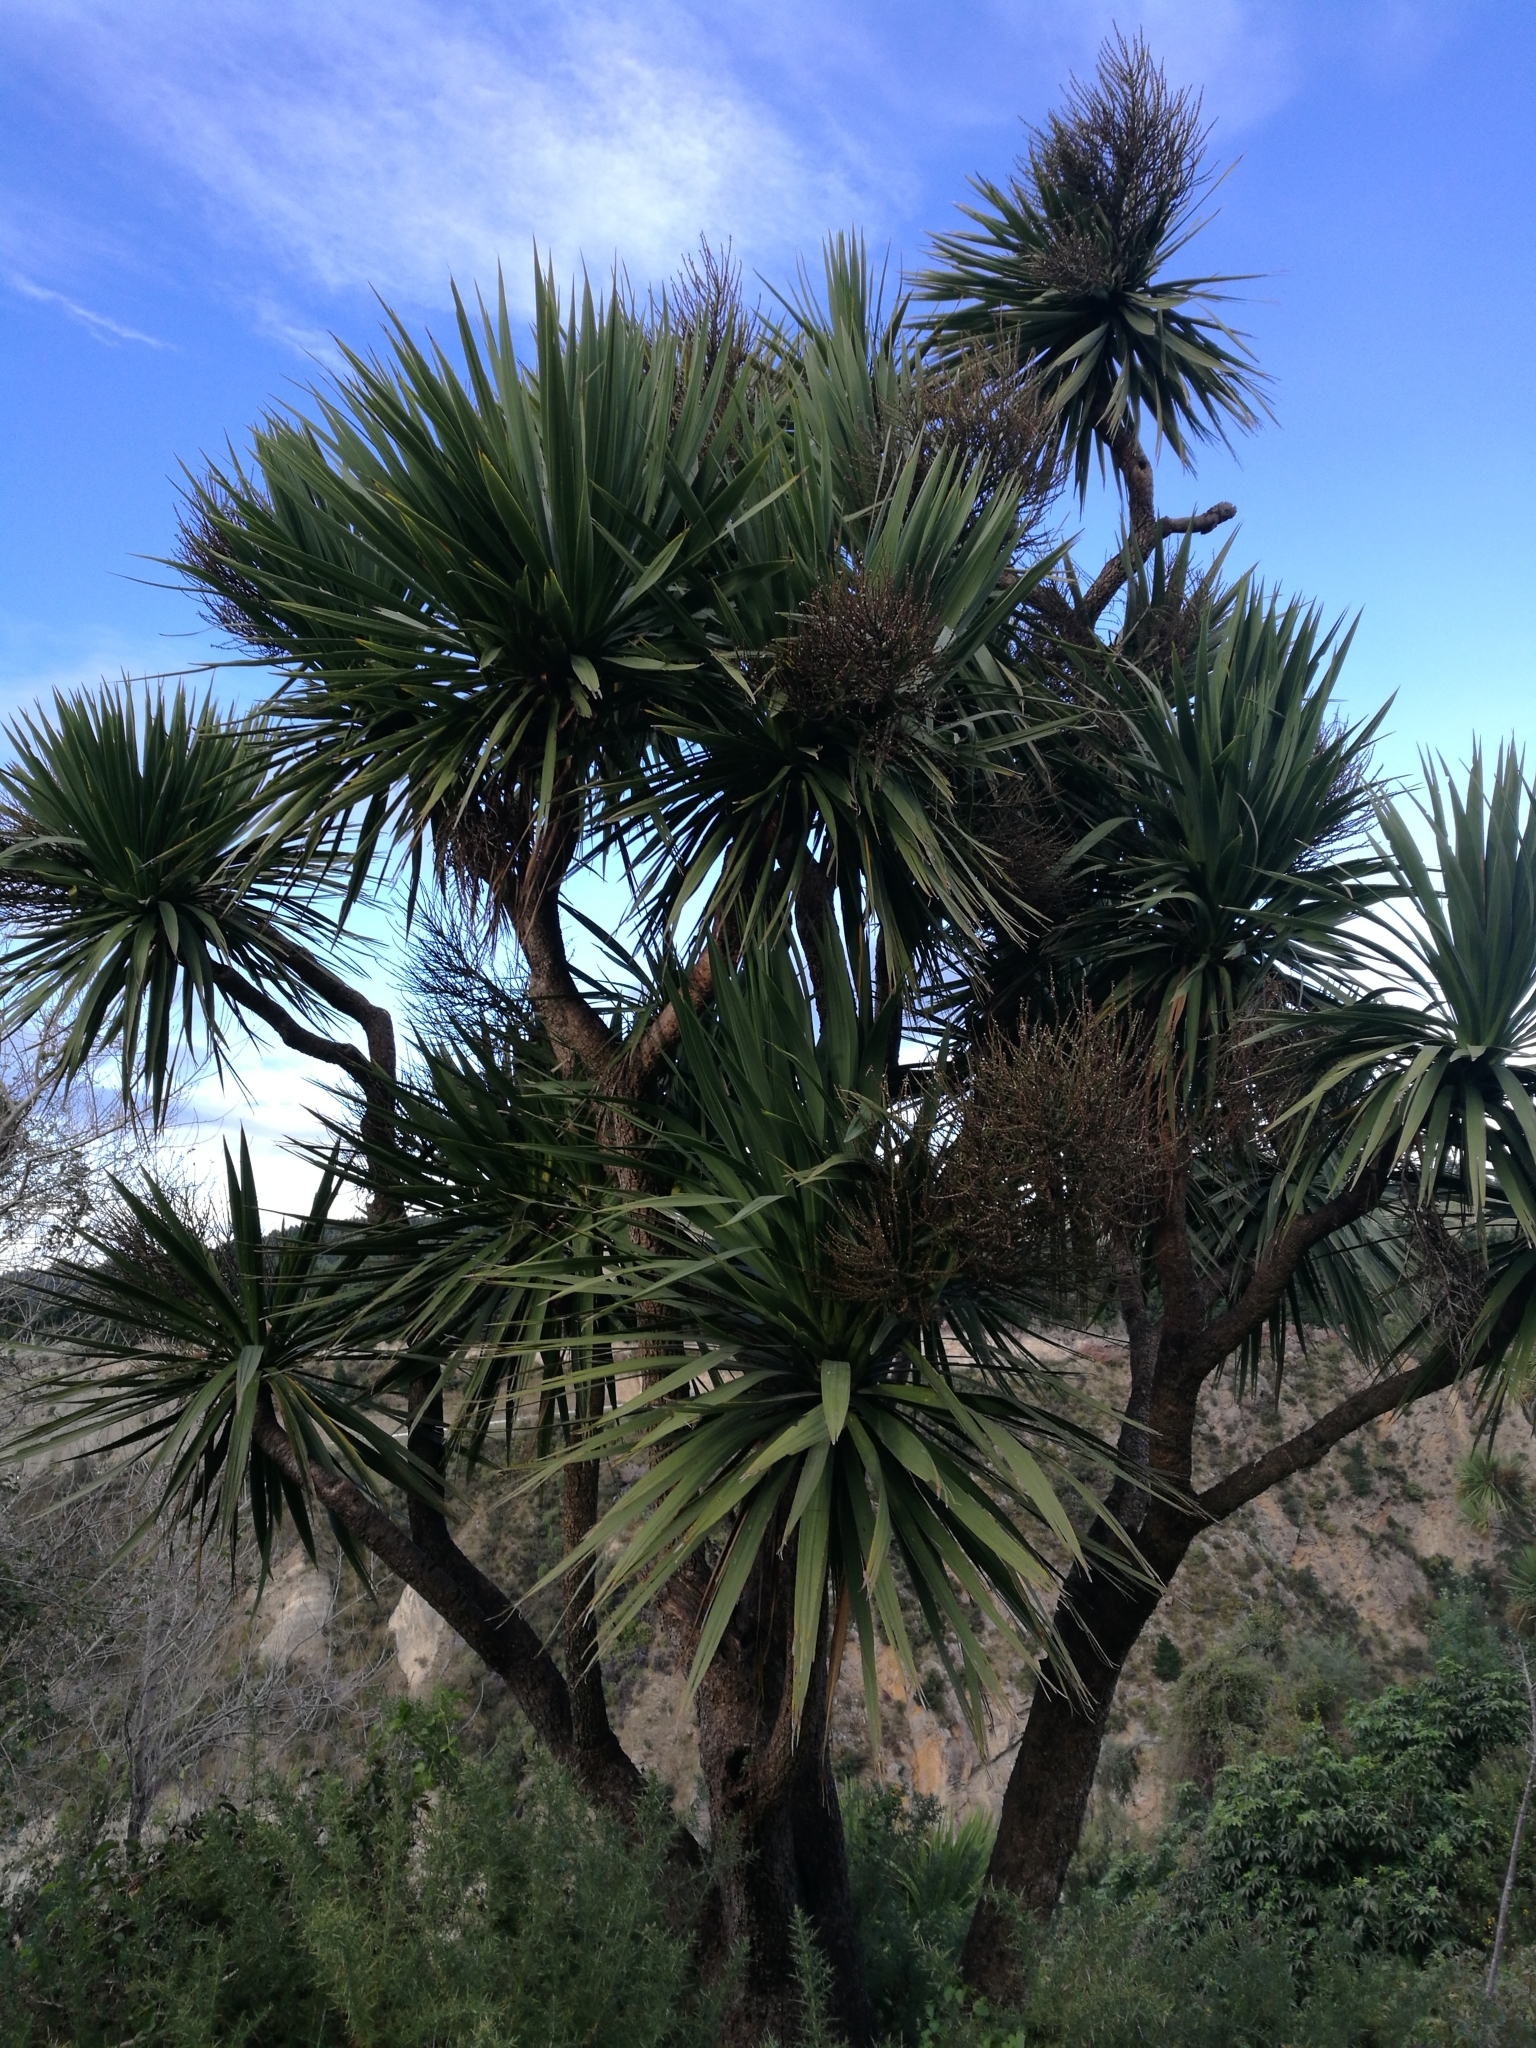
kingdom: Plantae
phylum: Tracheophyta
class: Liliopsida
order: Asparagales
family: Asparagaceae
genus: Cordyline
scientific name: Cordyline australis
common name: Cabbage-palm
